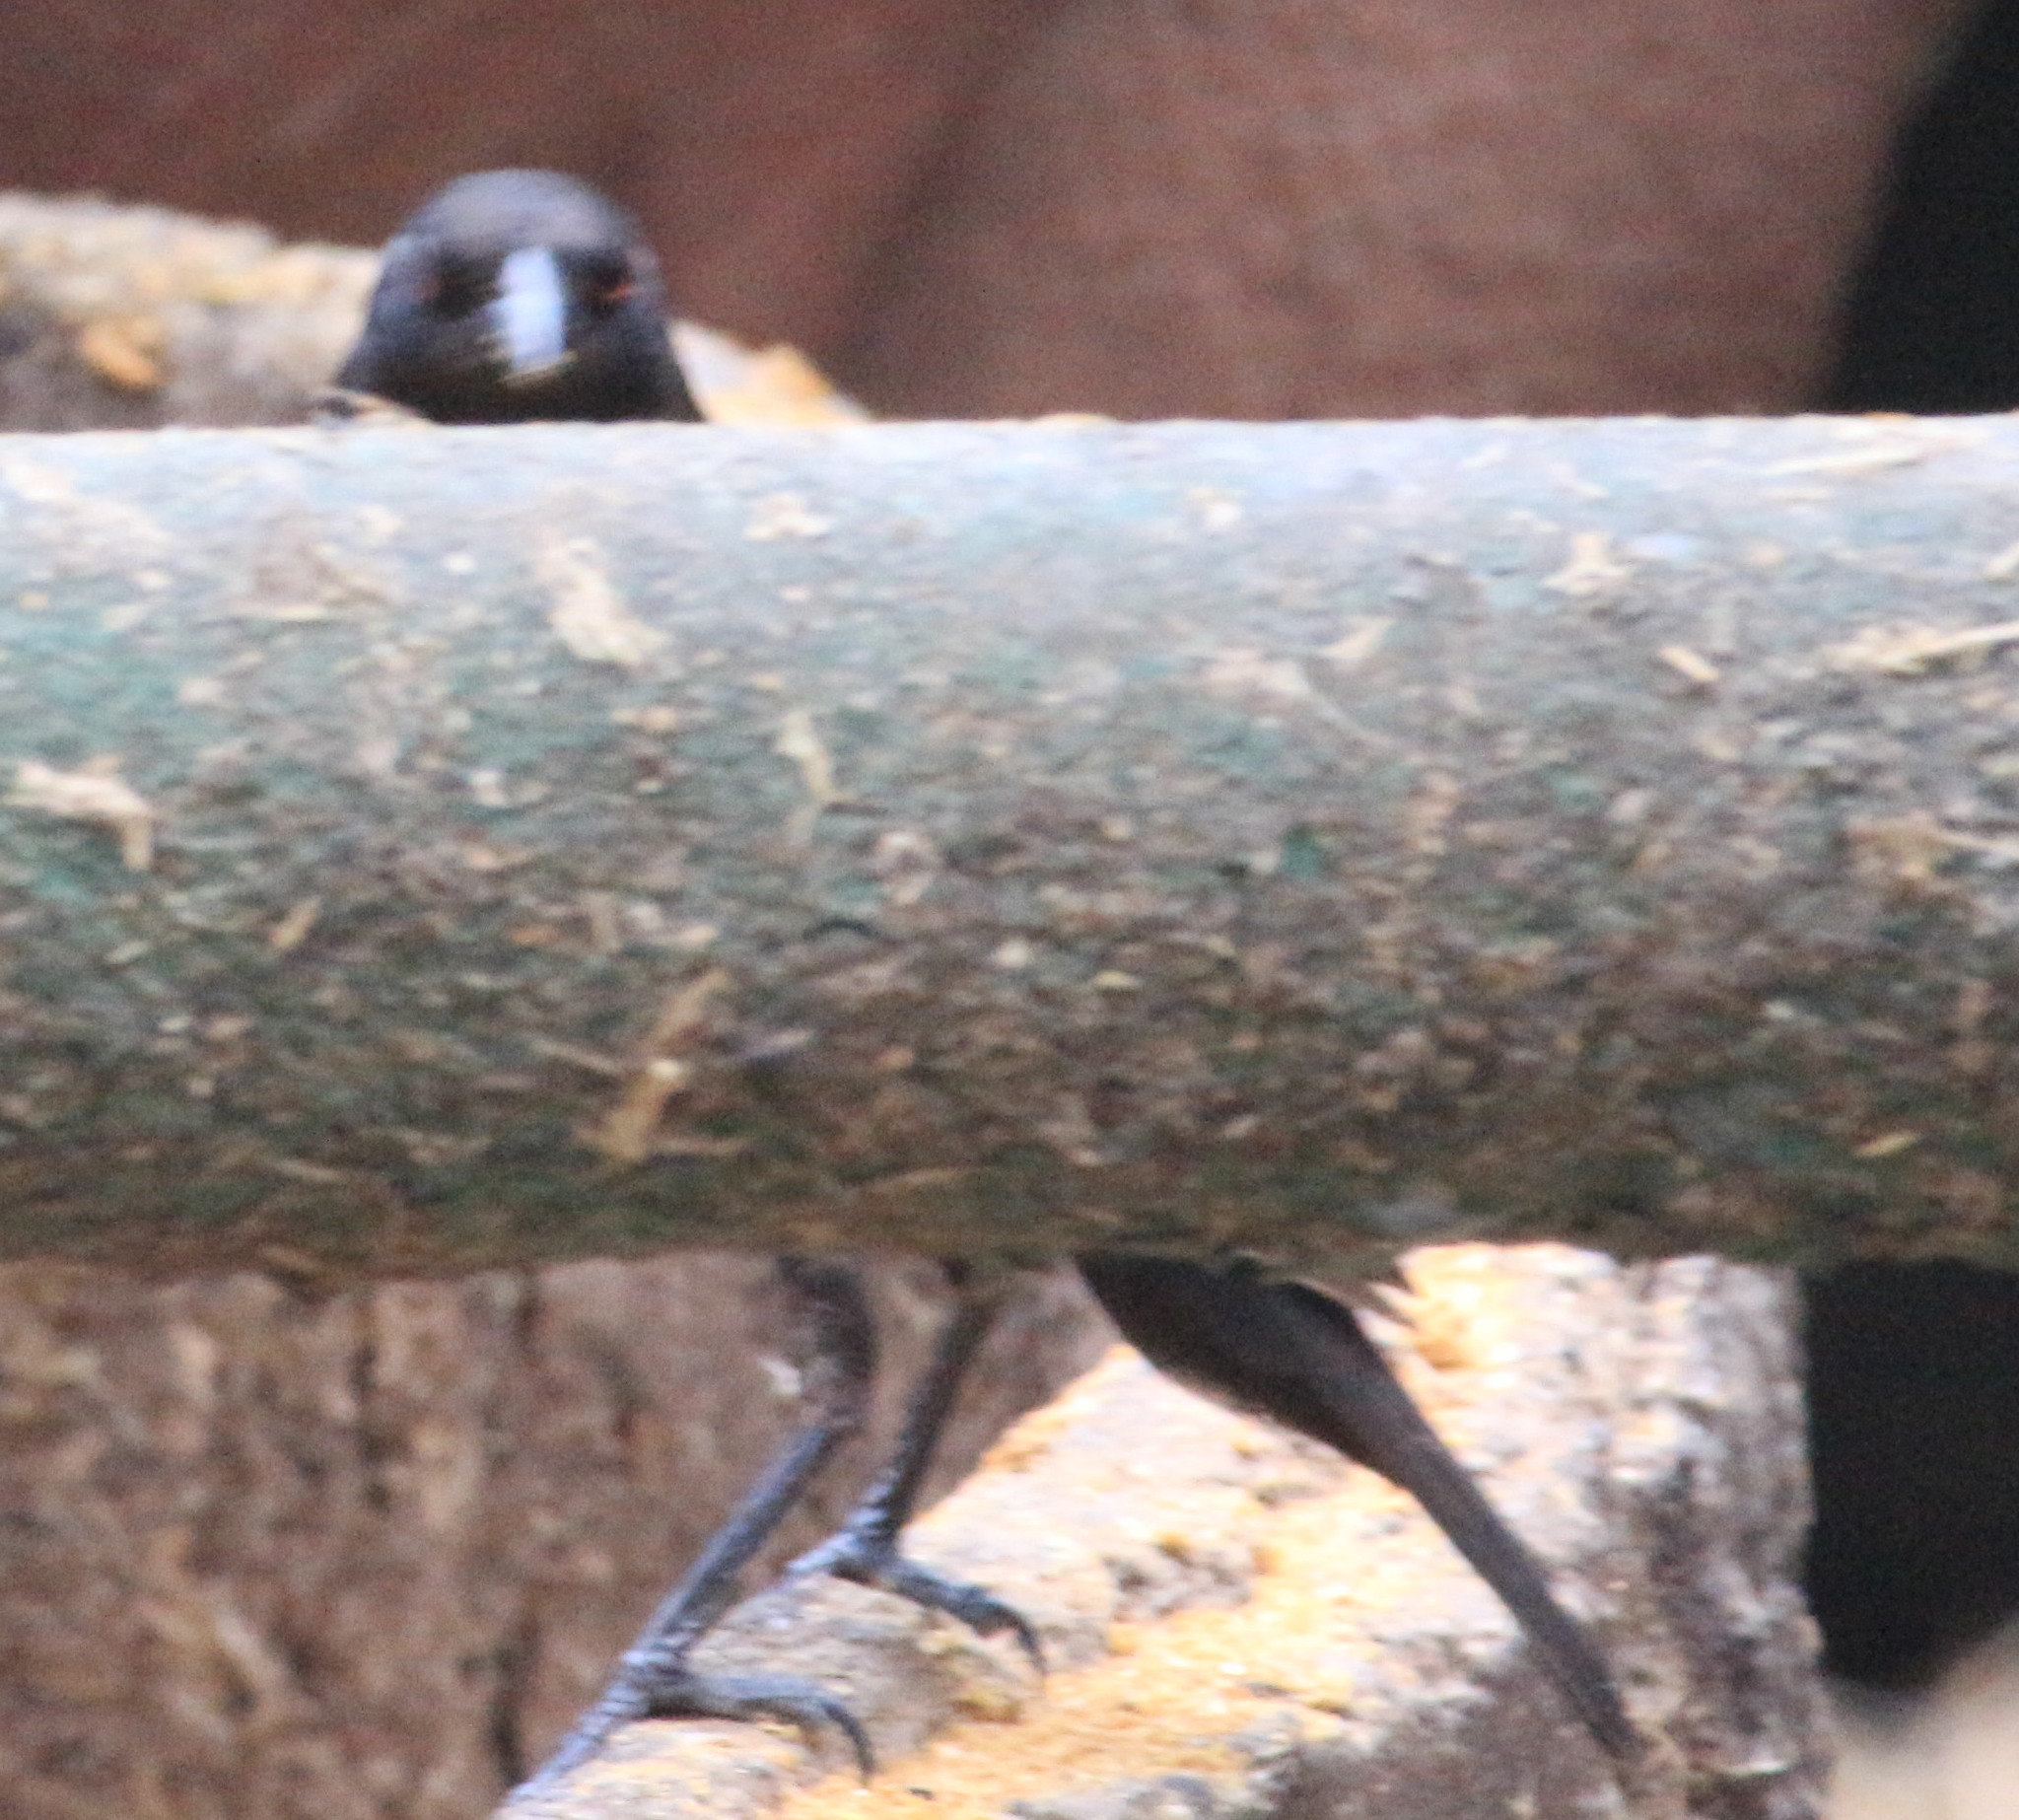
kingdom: Animalia
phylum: Chordata
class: Aves
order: Passeriformes
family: Icteridae
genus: Molothrus
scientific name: Molothrus aeneus
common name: Bronzed cowbird
